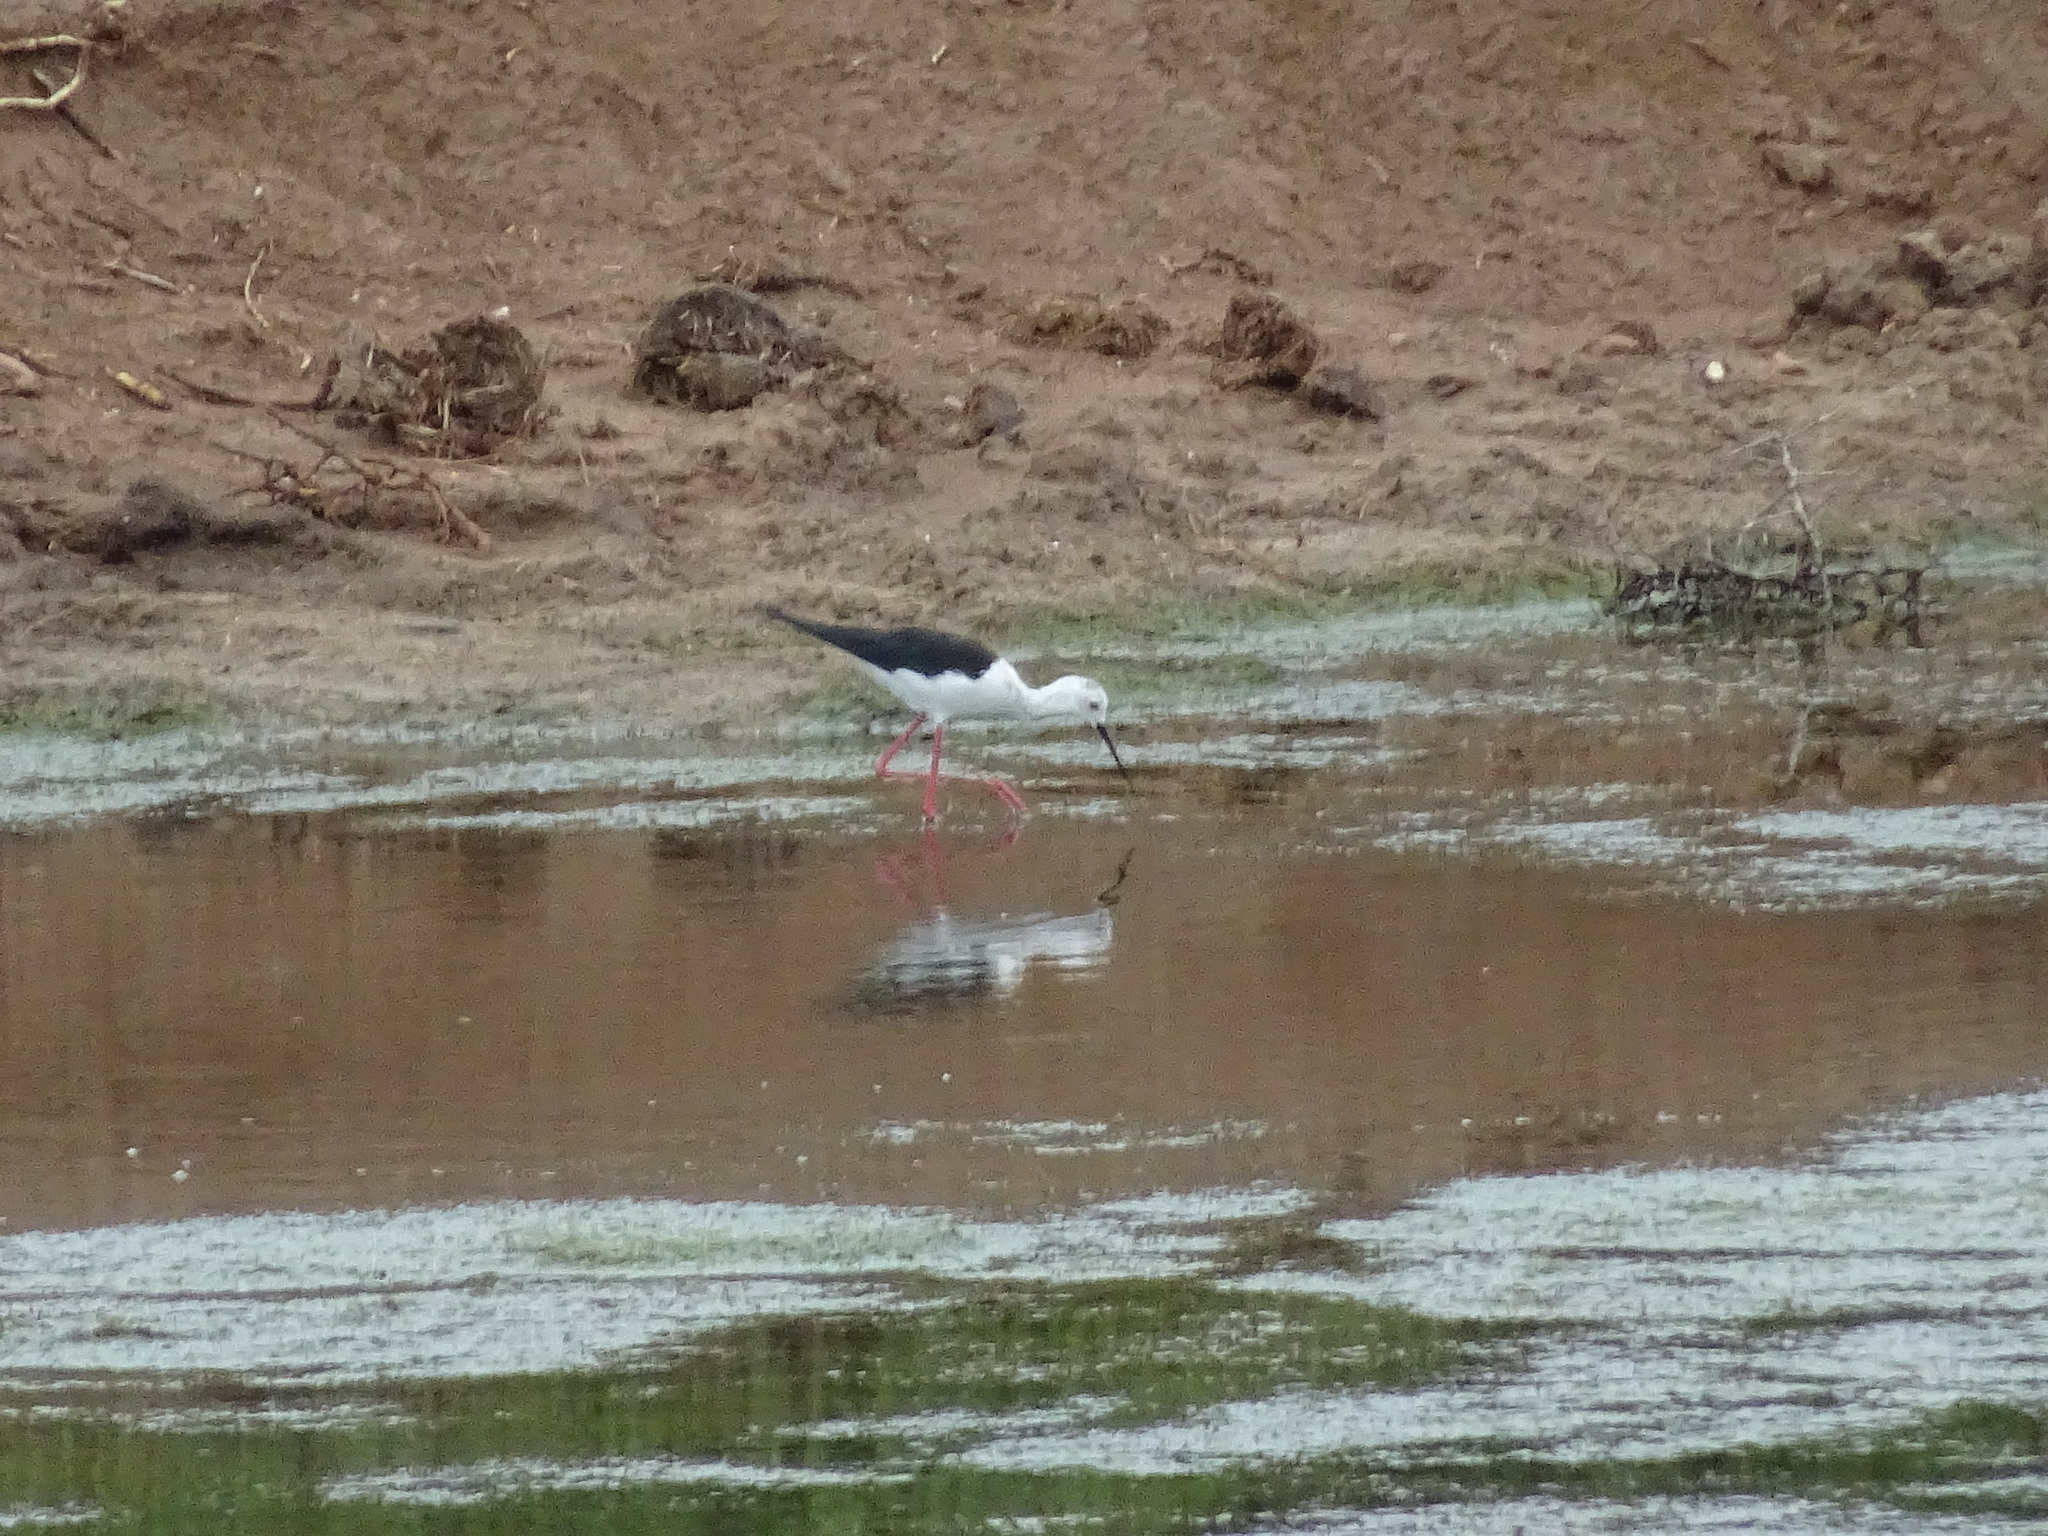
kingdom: Animalia
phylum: Chordata
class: Aves
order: Charadriiformes
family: Recurvirostridae
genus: Himantopus
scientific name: Himantopus himantopus
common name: Black-winged stilt
